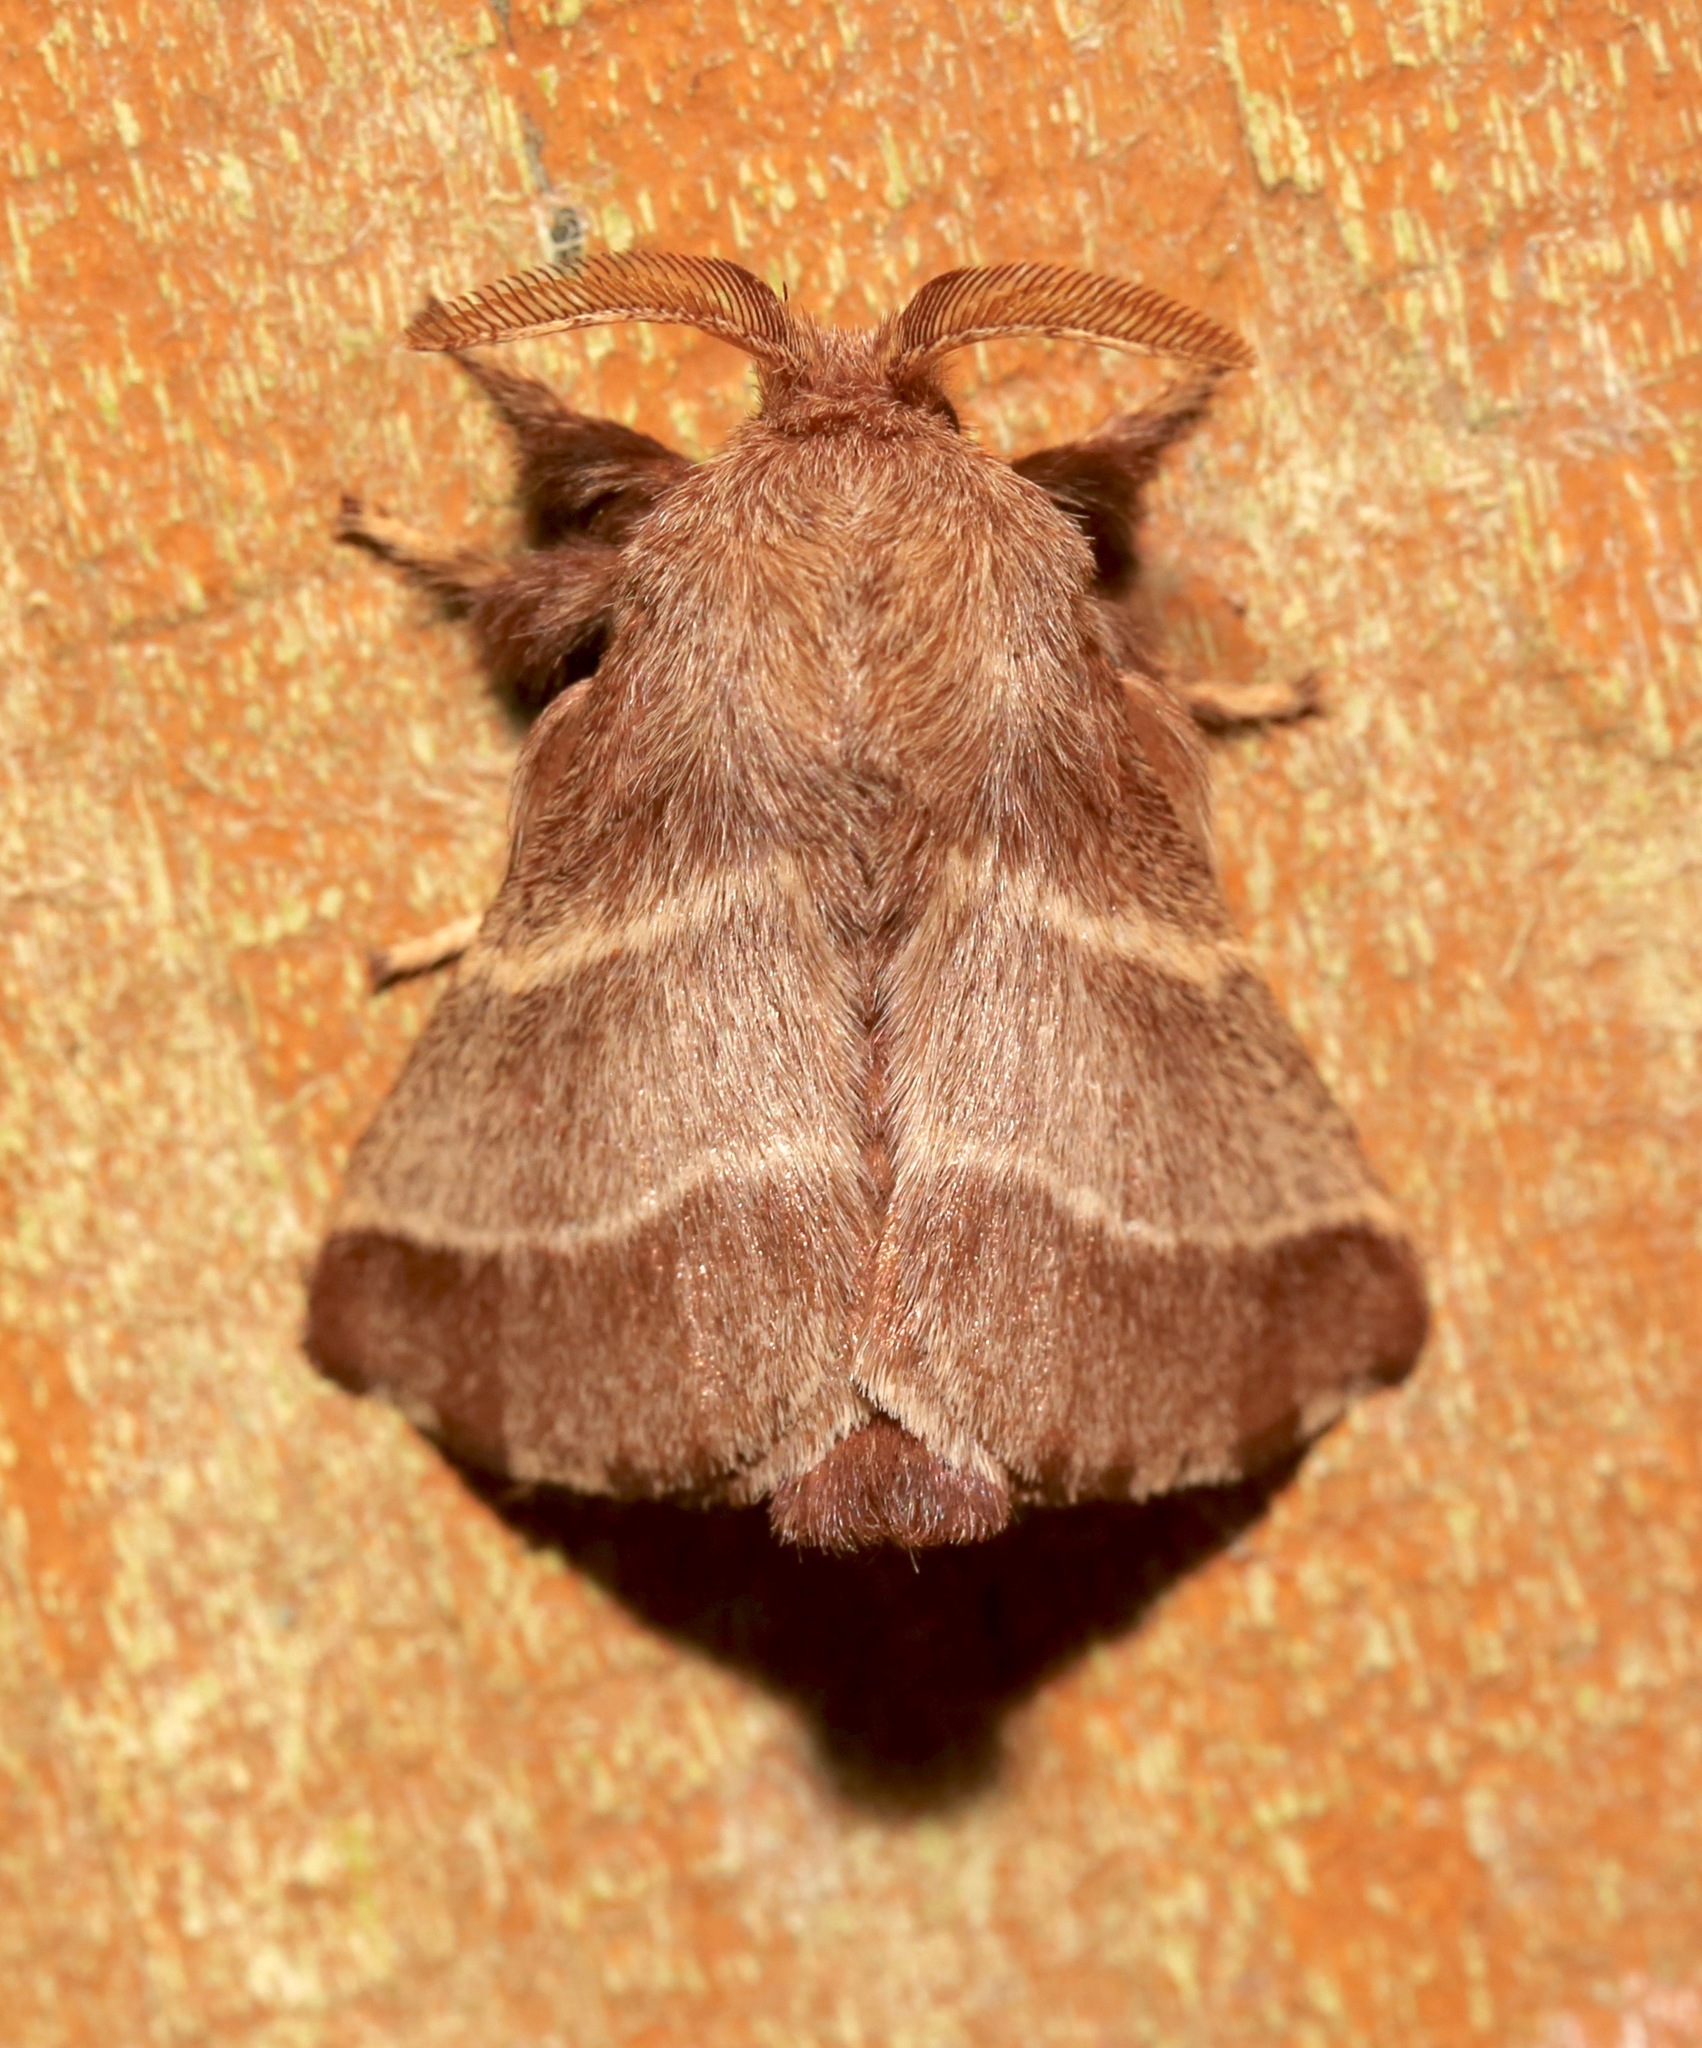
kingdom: Animalia
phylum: Arthropoda
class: Insecta
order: Lepidoptera
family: Lasiocampidae
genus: Malacosoma
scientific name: Malacosoma americana
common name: Eastern tent caterpillar moth
